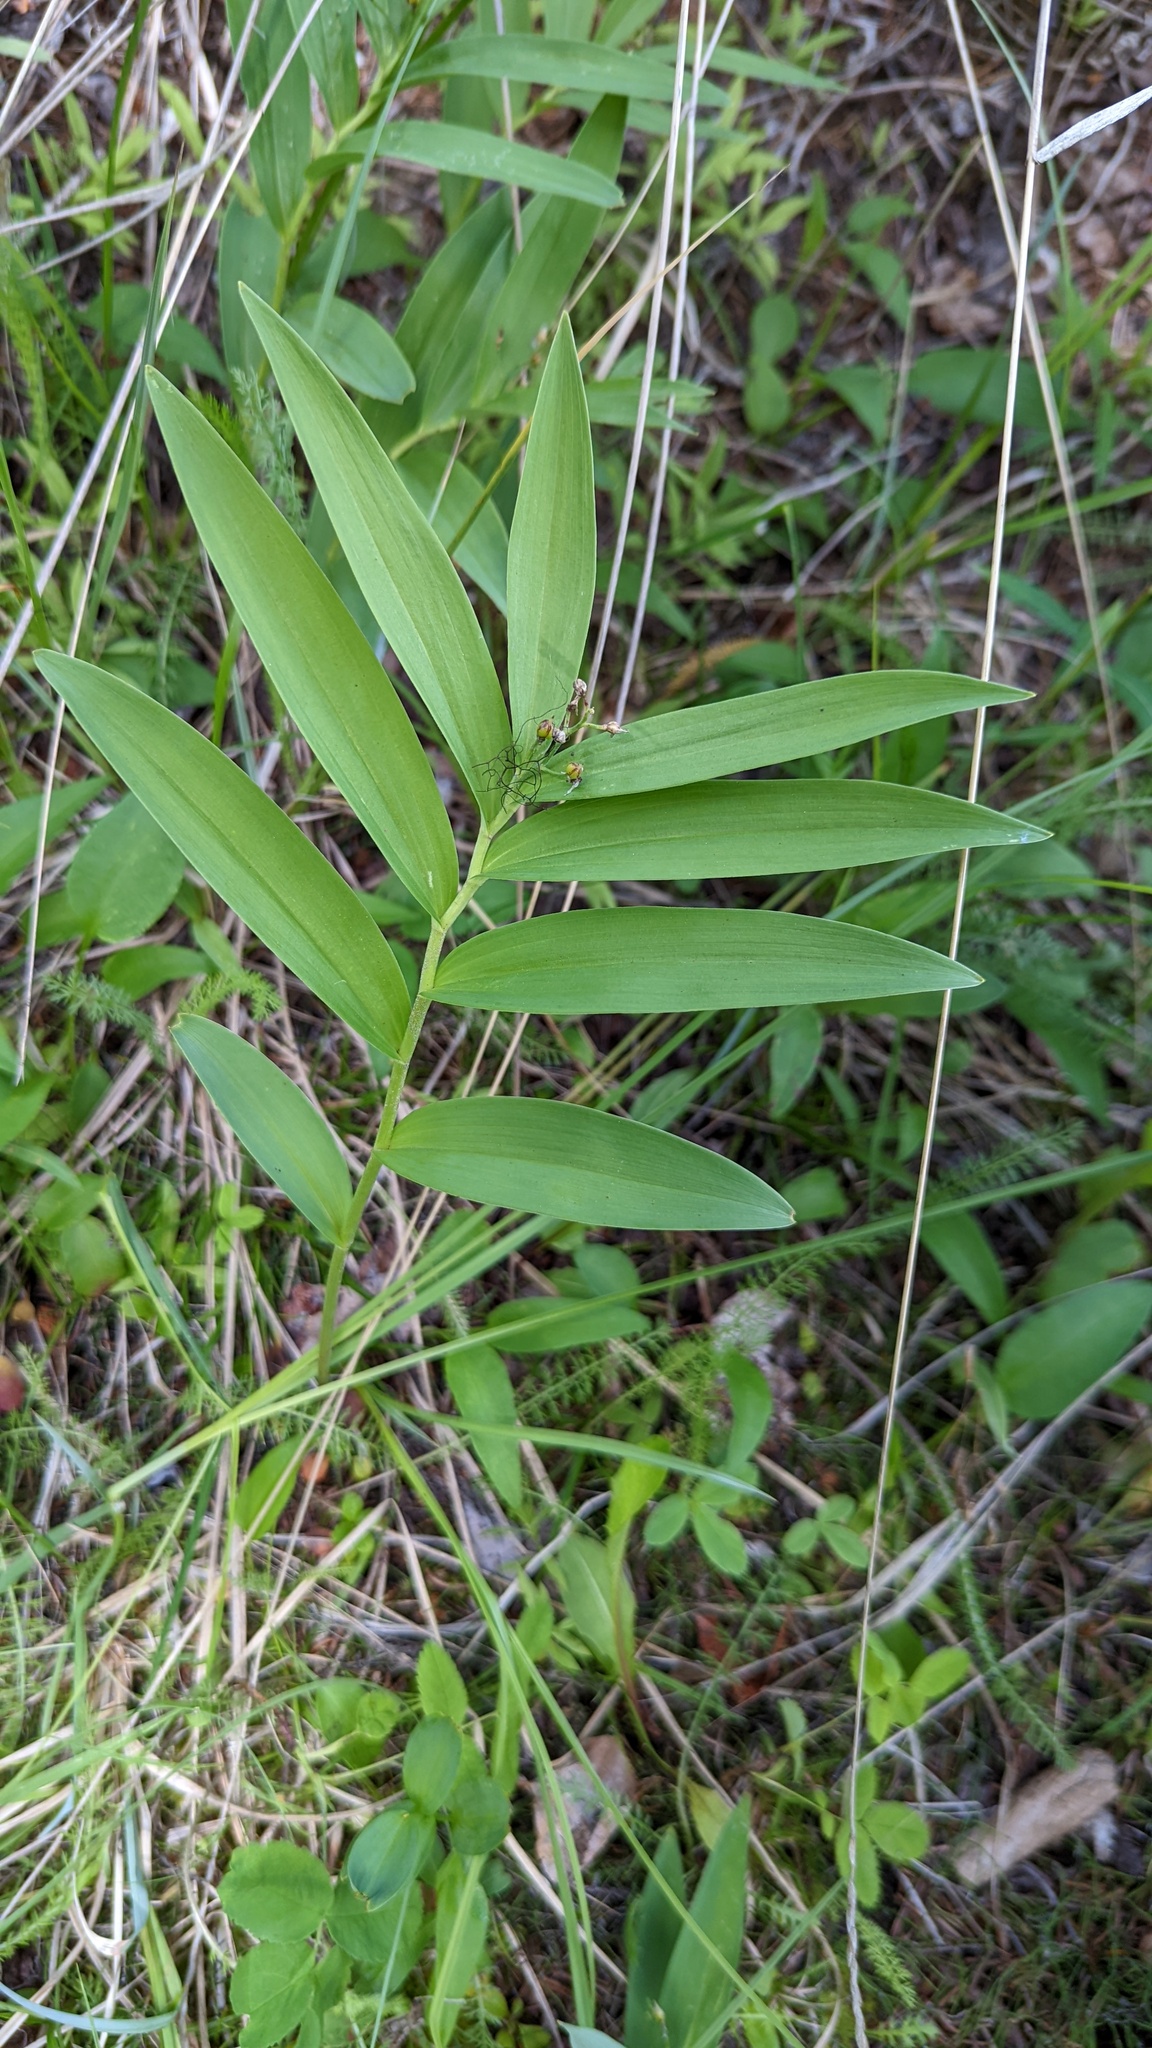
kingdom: Plantae
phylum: Tracheophyta
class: Liliopsida
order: Asparagales
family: Asparagaceae
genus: Maianthemum
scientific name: Maianthemum stellatum
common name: Little false solomon's seal
